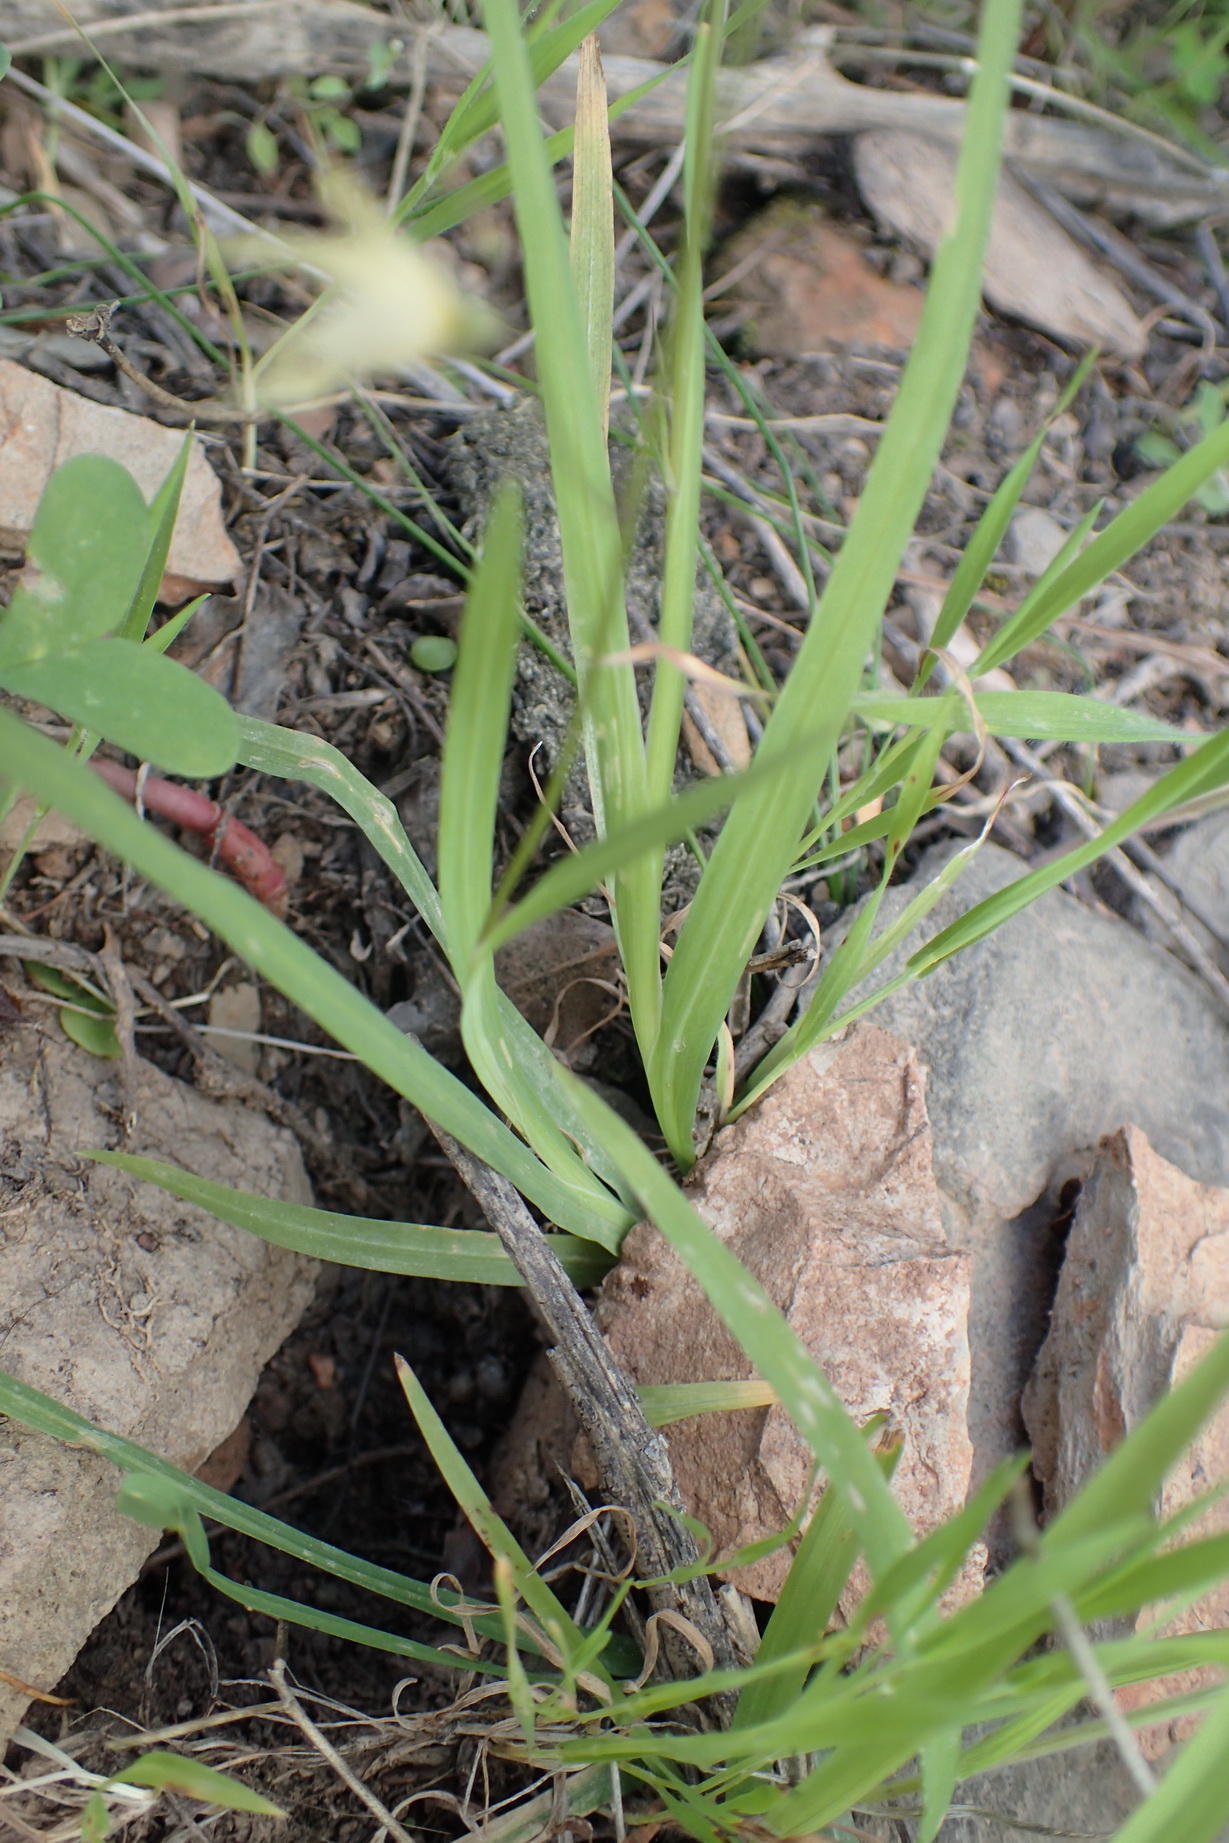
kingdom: Plantae
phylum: Tracheophyta
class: Liliopsida
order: Asparagales
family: Iridaceae
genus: Melasphaerula
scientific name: Melasphaerula graminea
